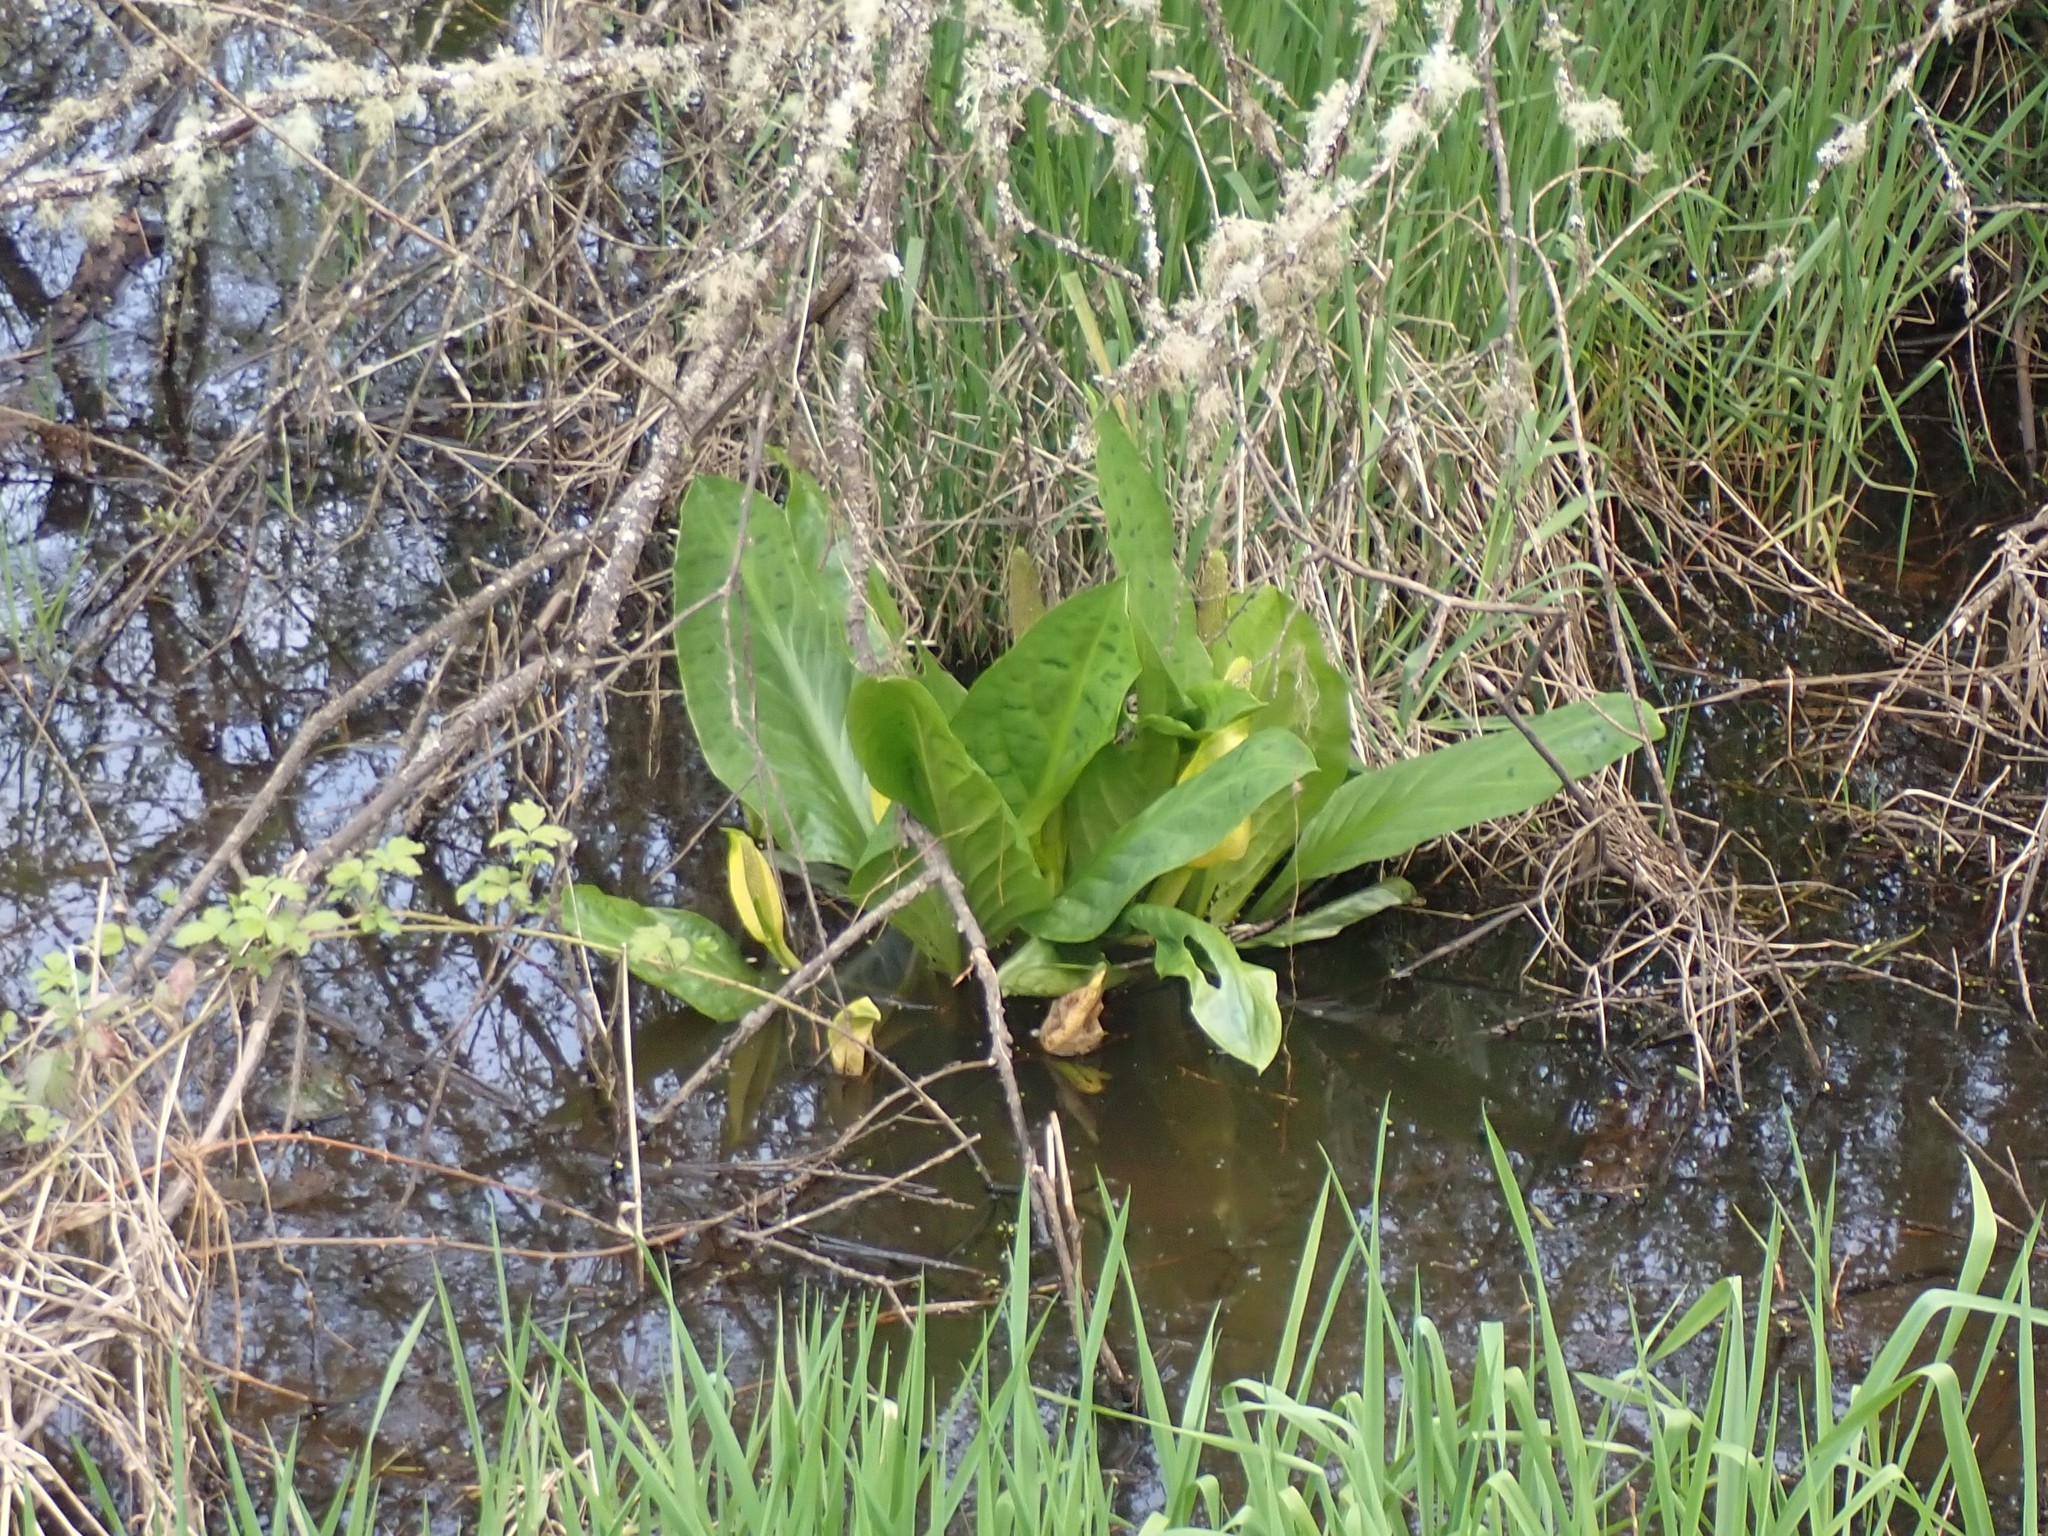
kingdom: Plantae
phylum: Tracheophyta
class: Liliopsida
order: Alismatales
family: Araceae
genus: Lysichiton
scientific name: Lysichiton americanus
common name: American skunk cabbage
